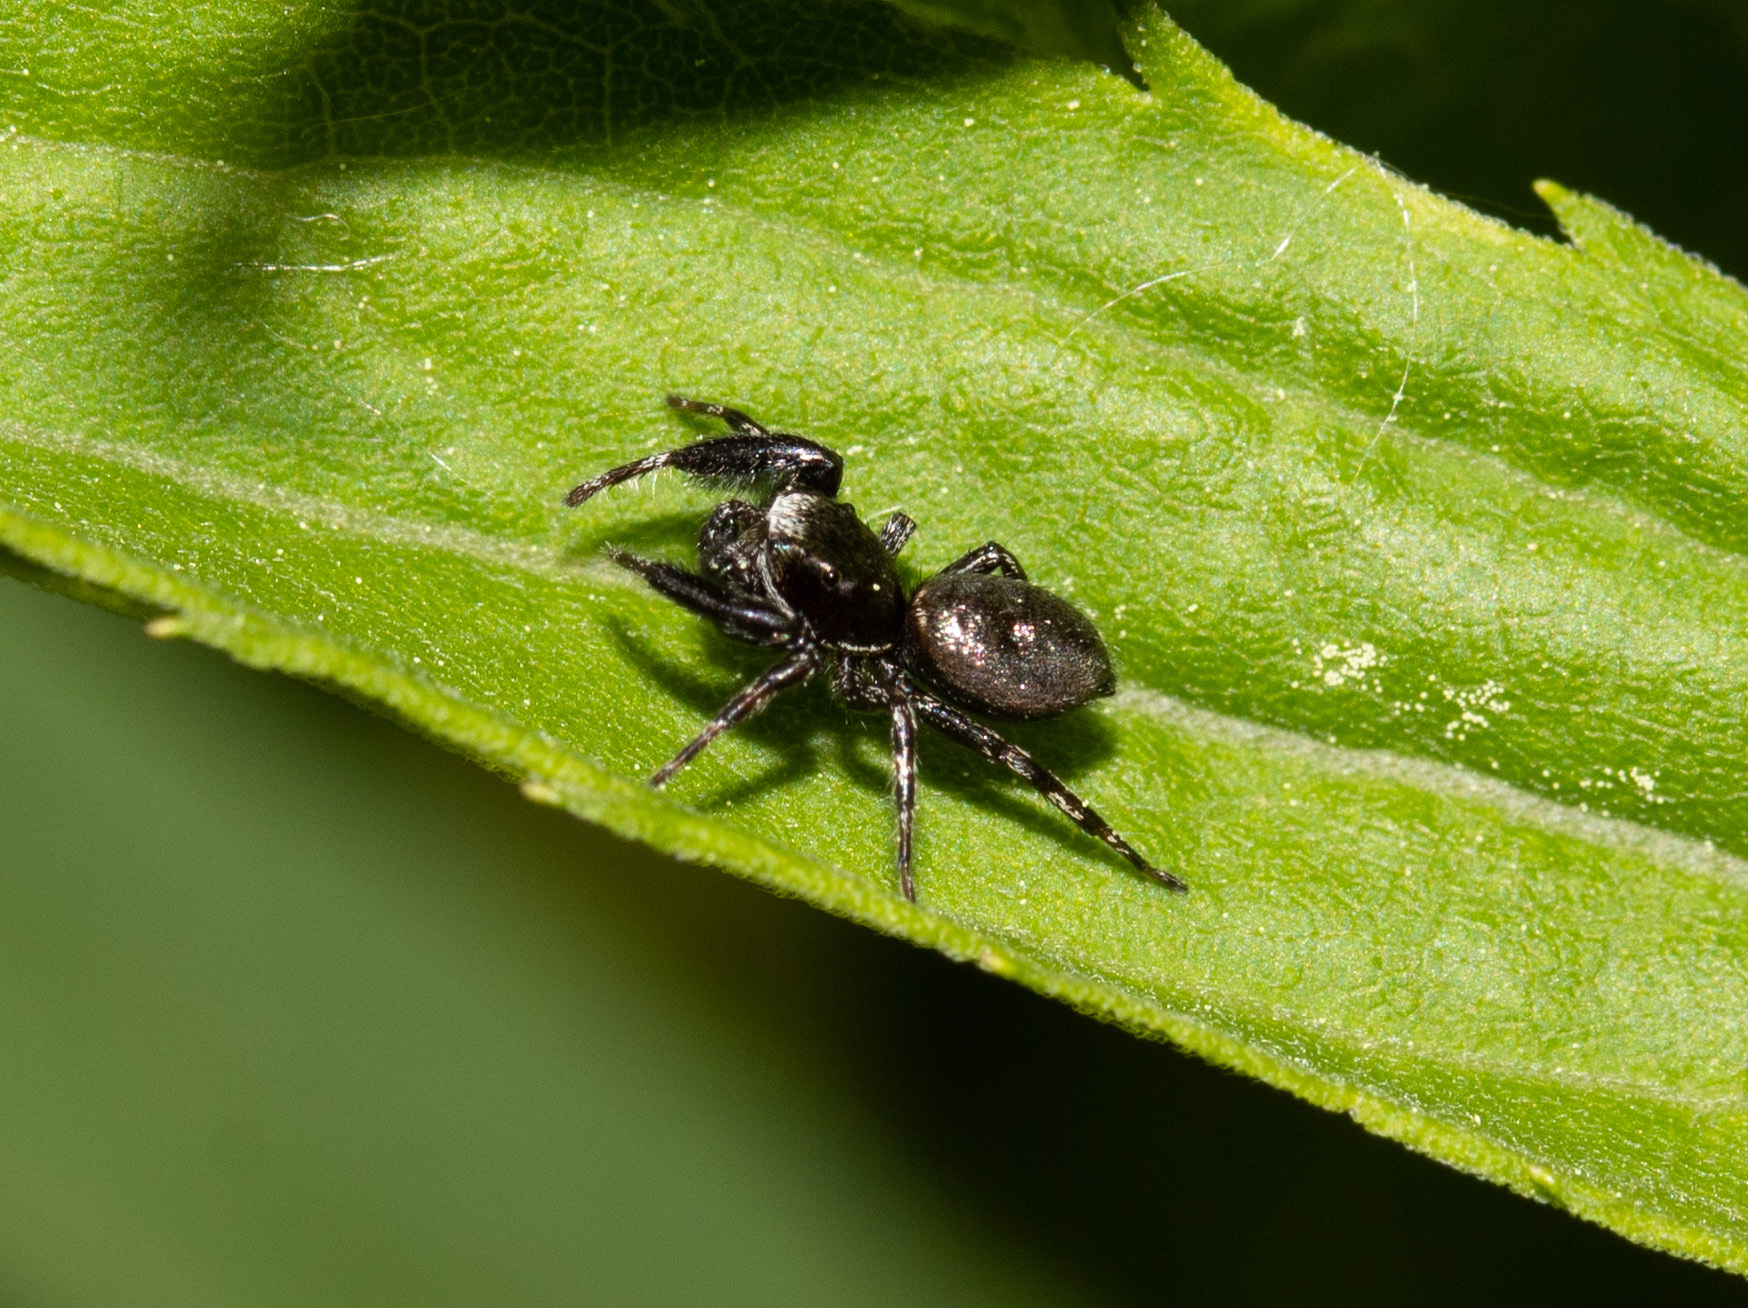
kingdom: Animalia
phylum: Arthropoda
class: Arachnida
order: Araneae
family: Salticidae
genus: Tutelina
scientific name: Tutelina harti
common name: Hart's jumping spider
